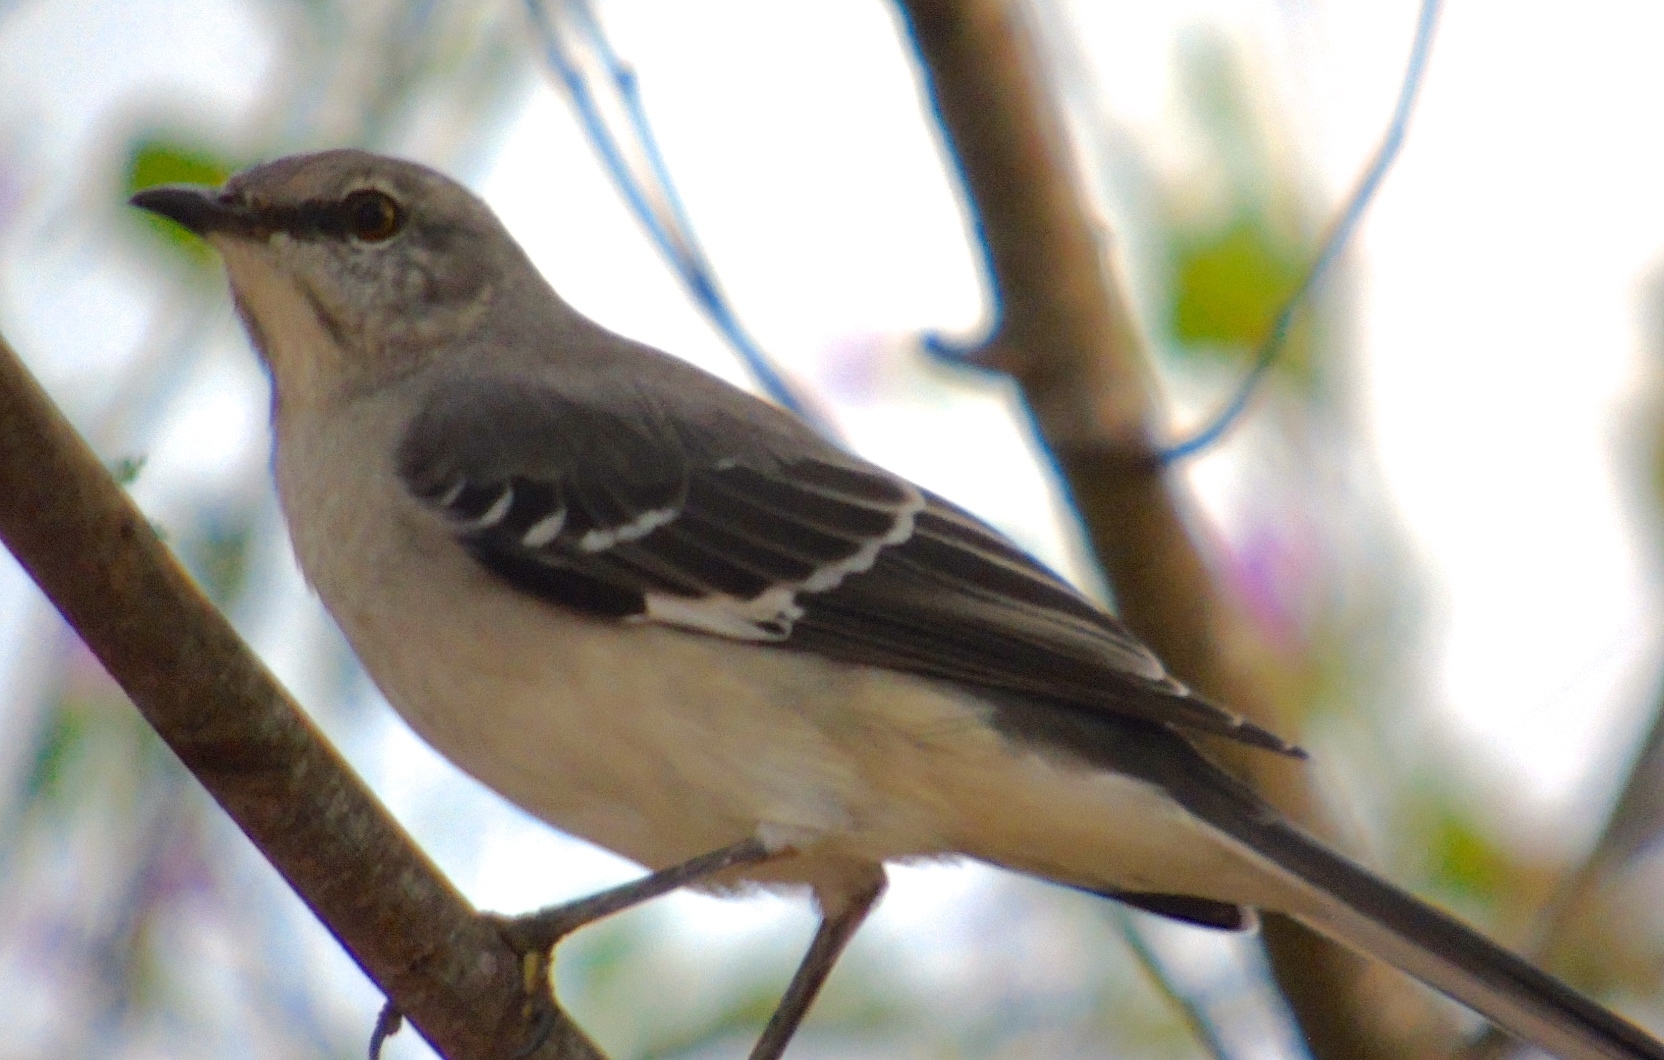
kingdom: Animalia
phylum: Chordata
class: Aves
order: Passeriformes
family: Mimidae
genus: Mimus
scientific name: Mimus polyglottos
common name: Northern mockingbird
